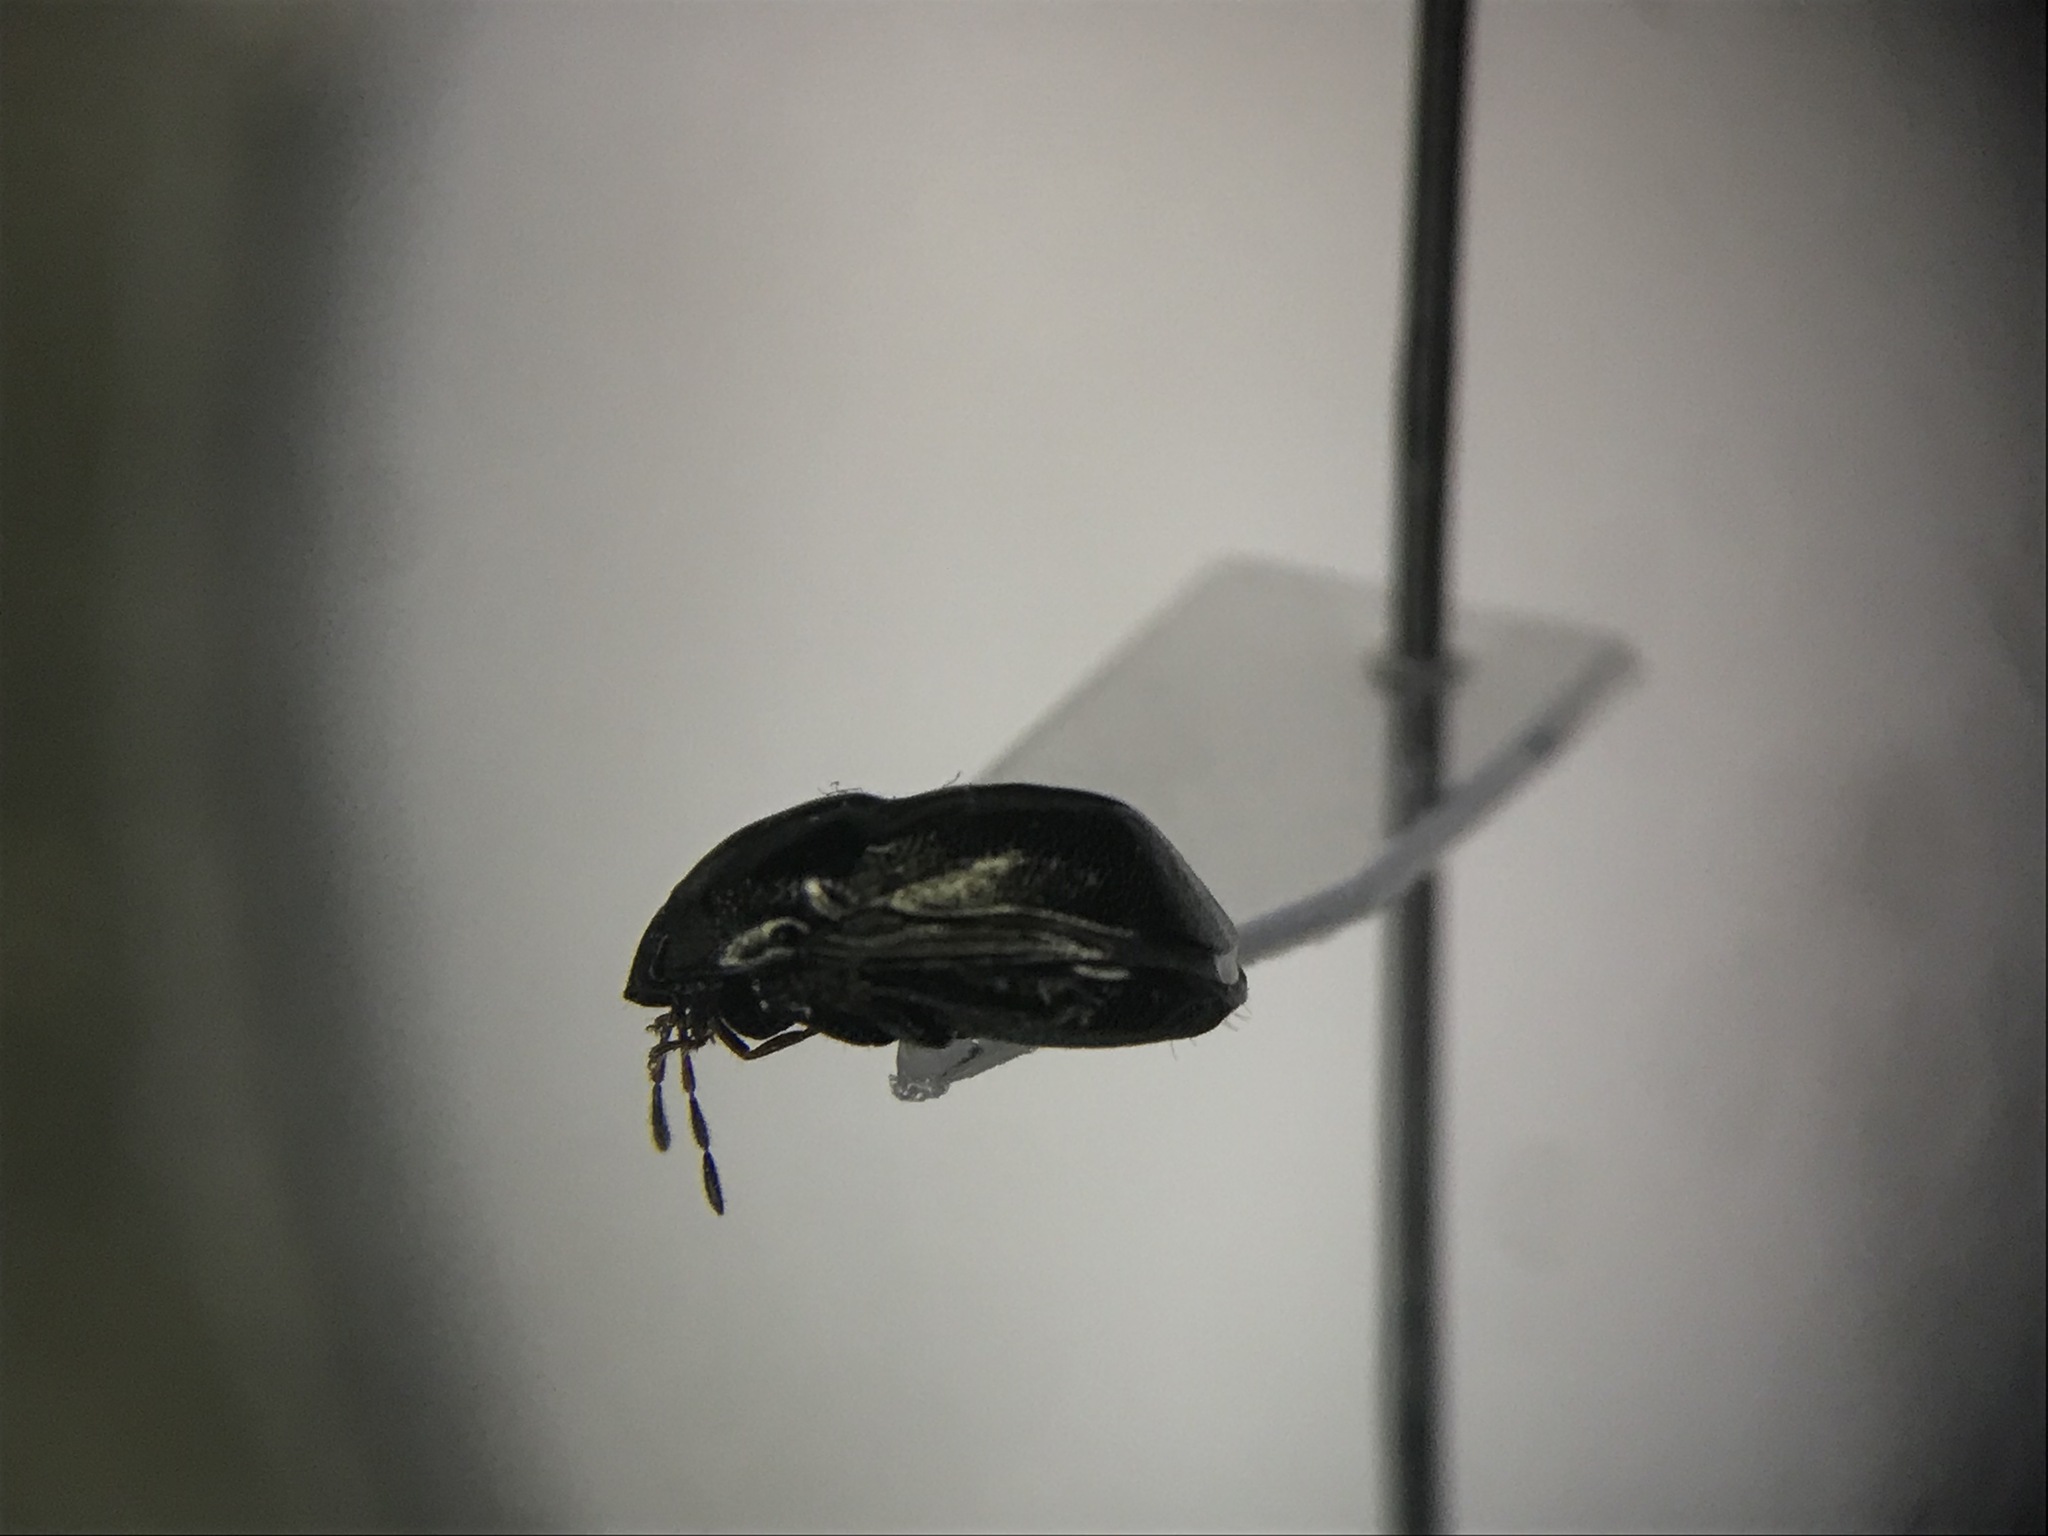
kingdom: Animalia
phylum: Arthropoda
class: Insecta
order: Hemiptera
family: Thyreocoridae
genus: Galgupha
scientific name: Galgupha aterrima
